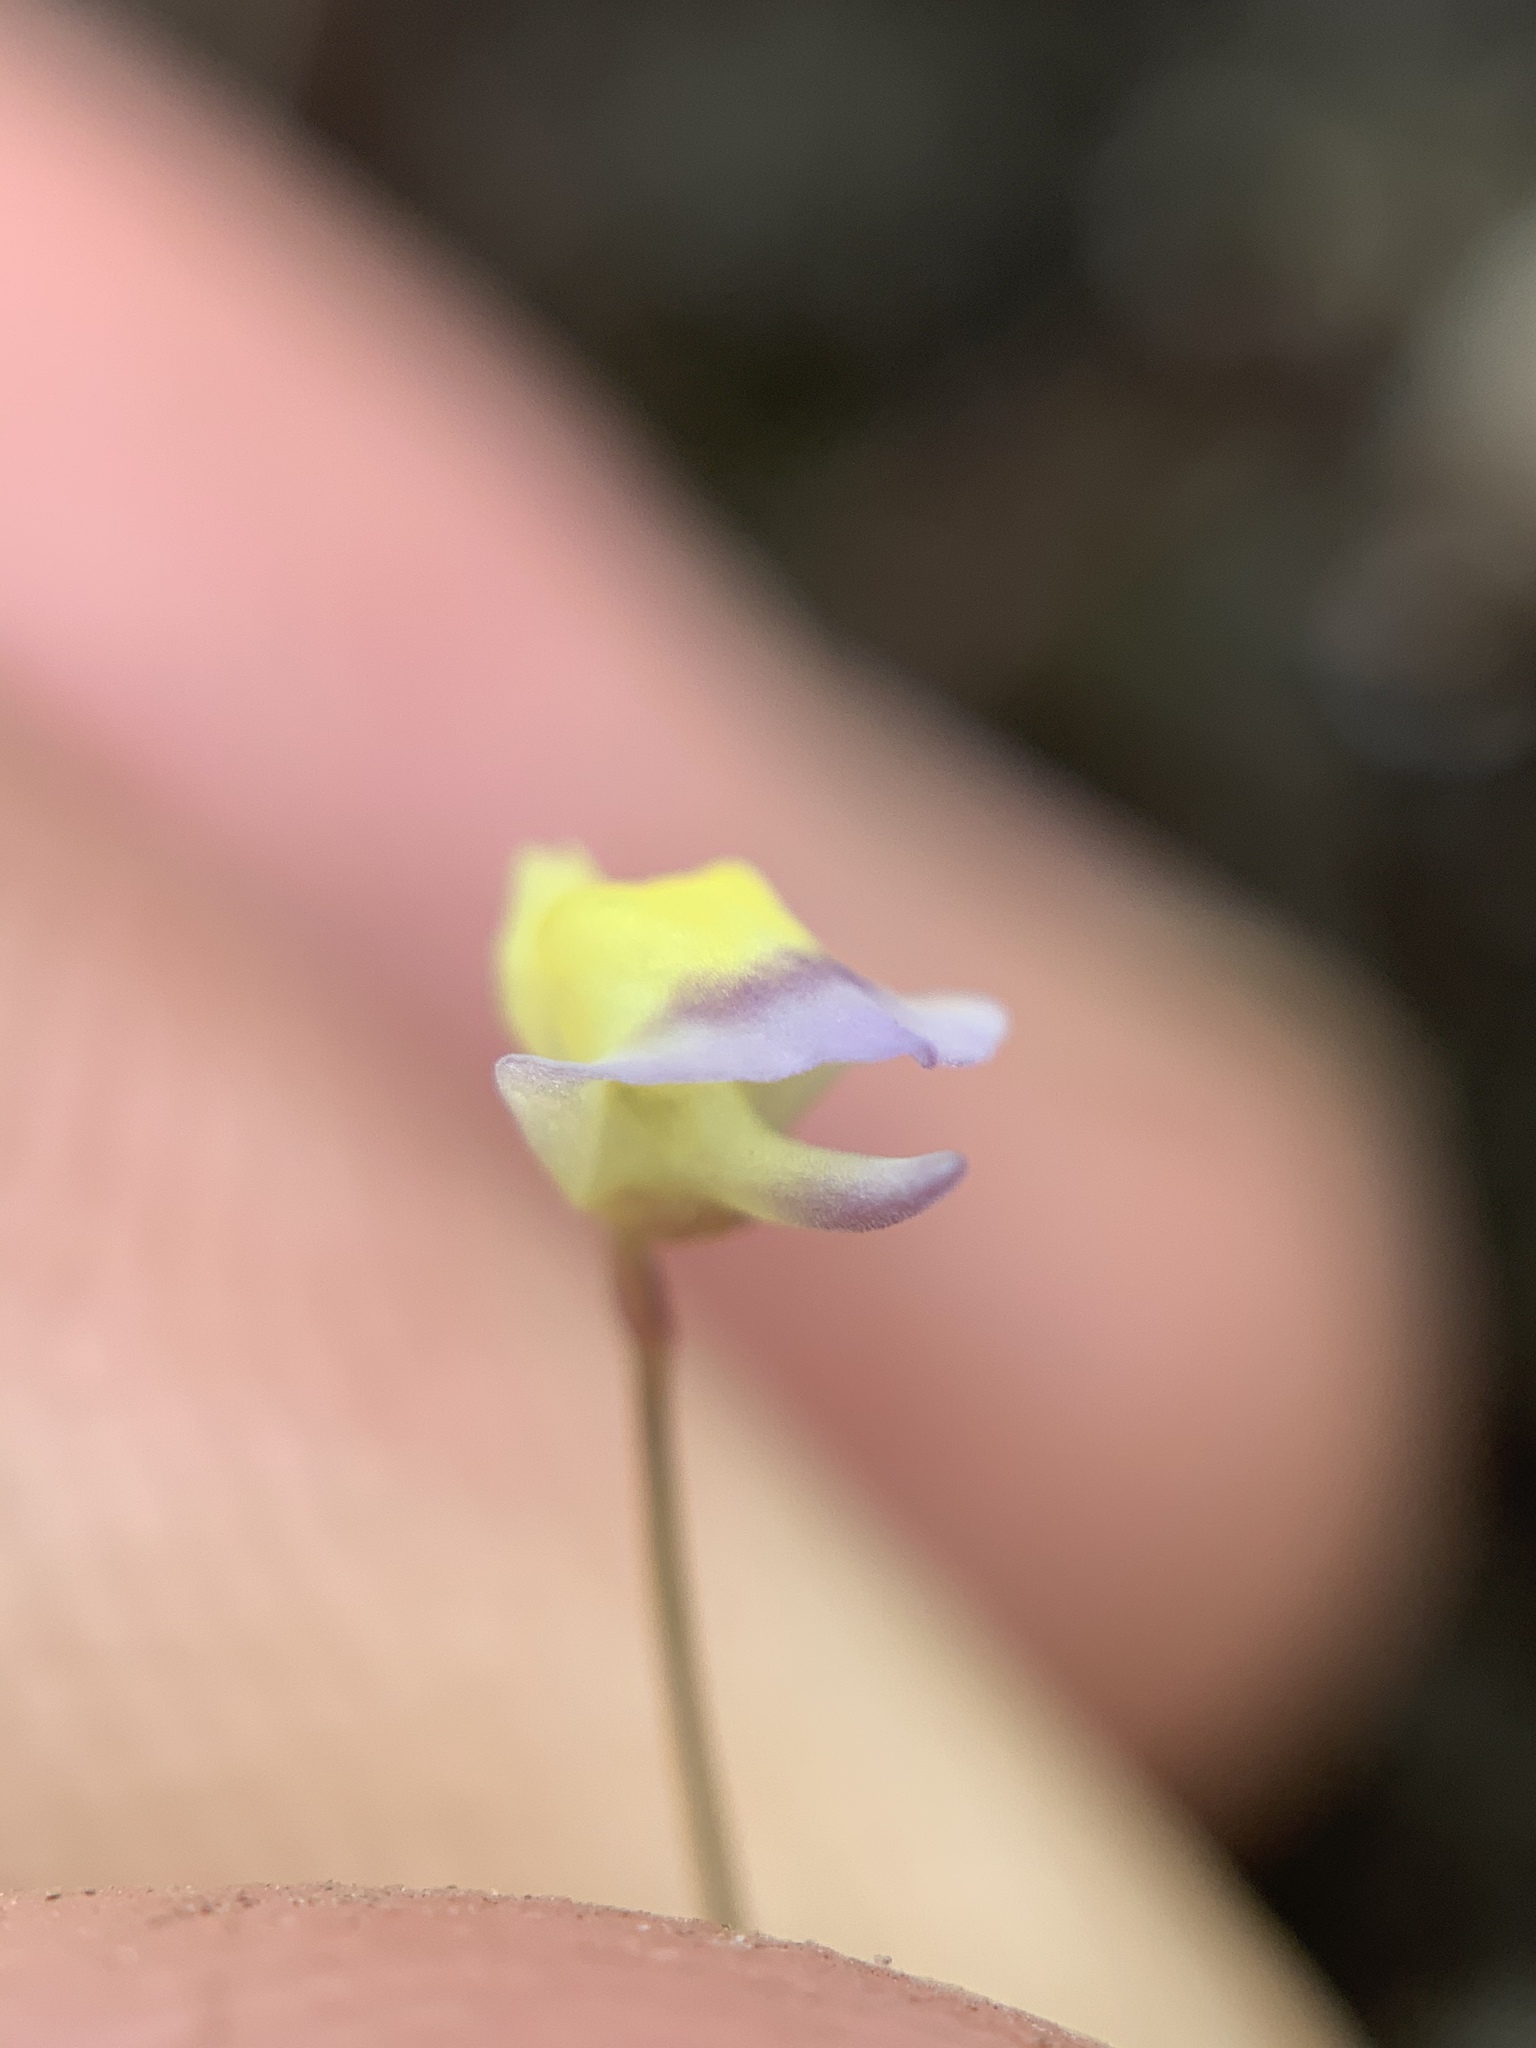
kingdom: Plantae
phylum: Tracheophyta
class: Magnoliopsida
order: Lamiales
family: Lentibulariaceae
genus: Utricularia
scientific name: Utricularia bisquamata
